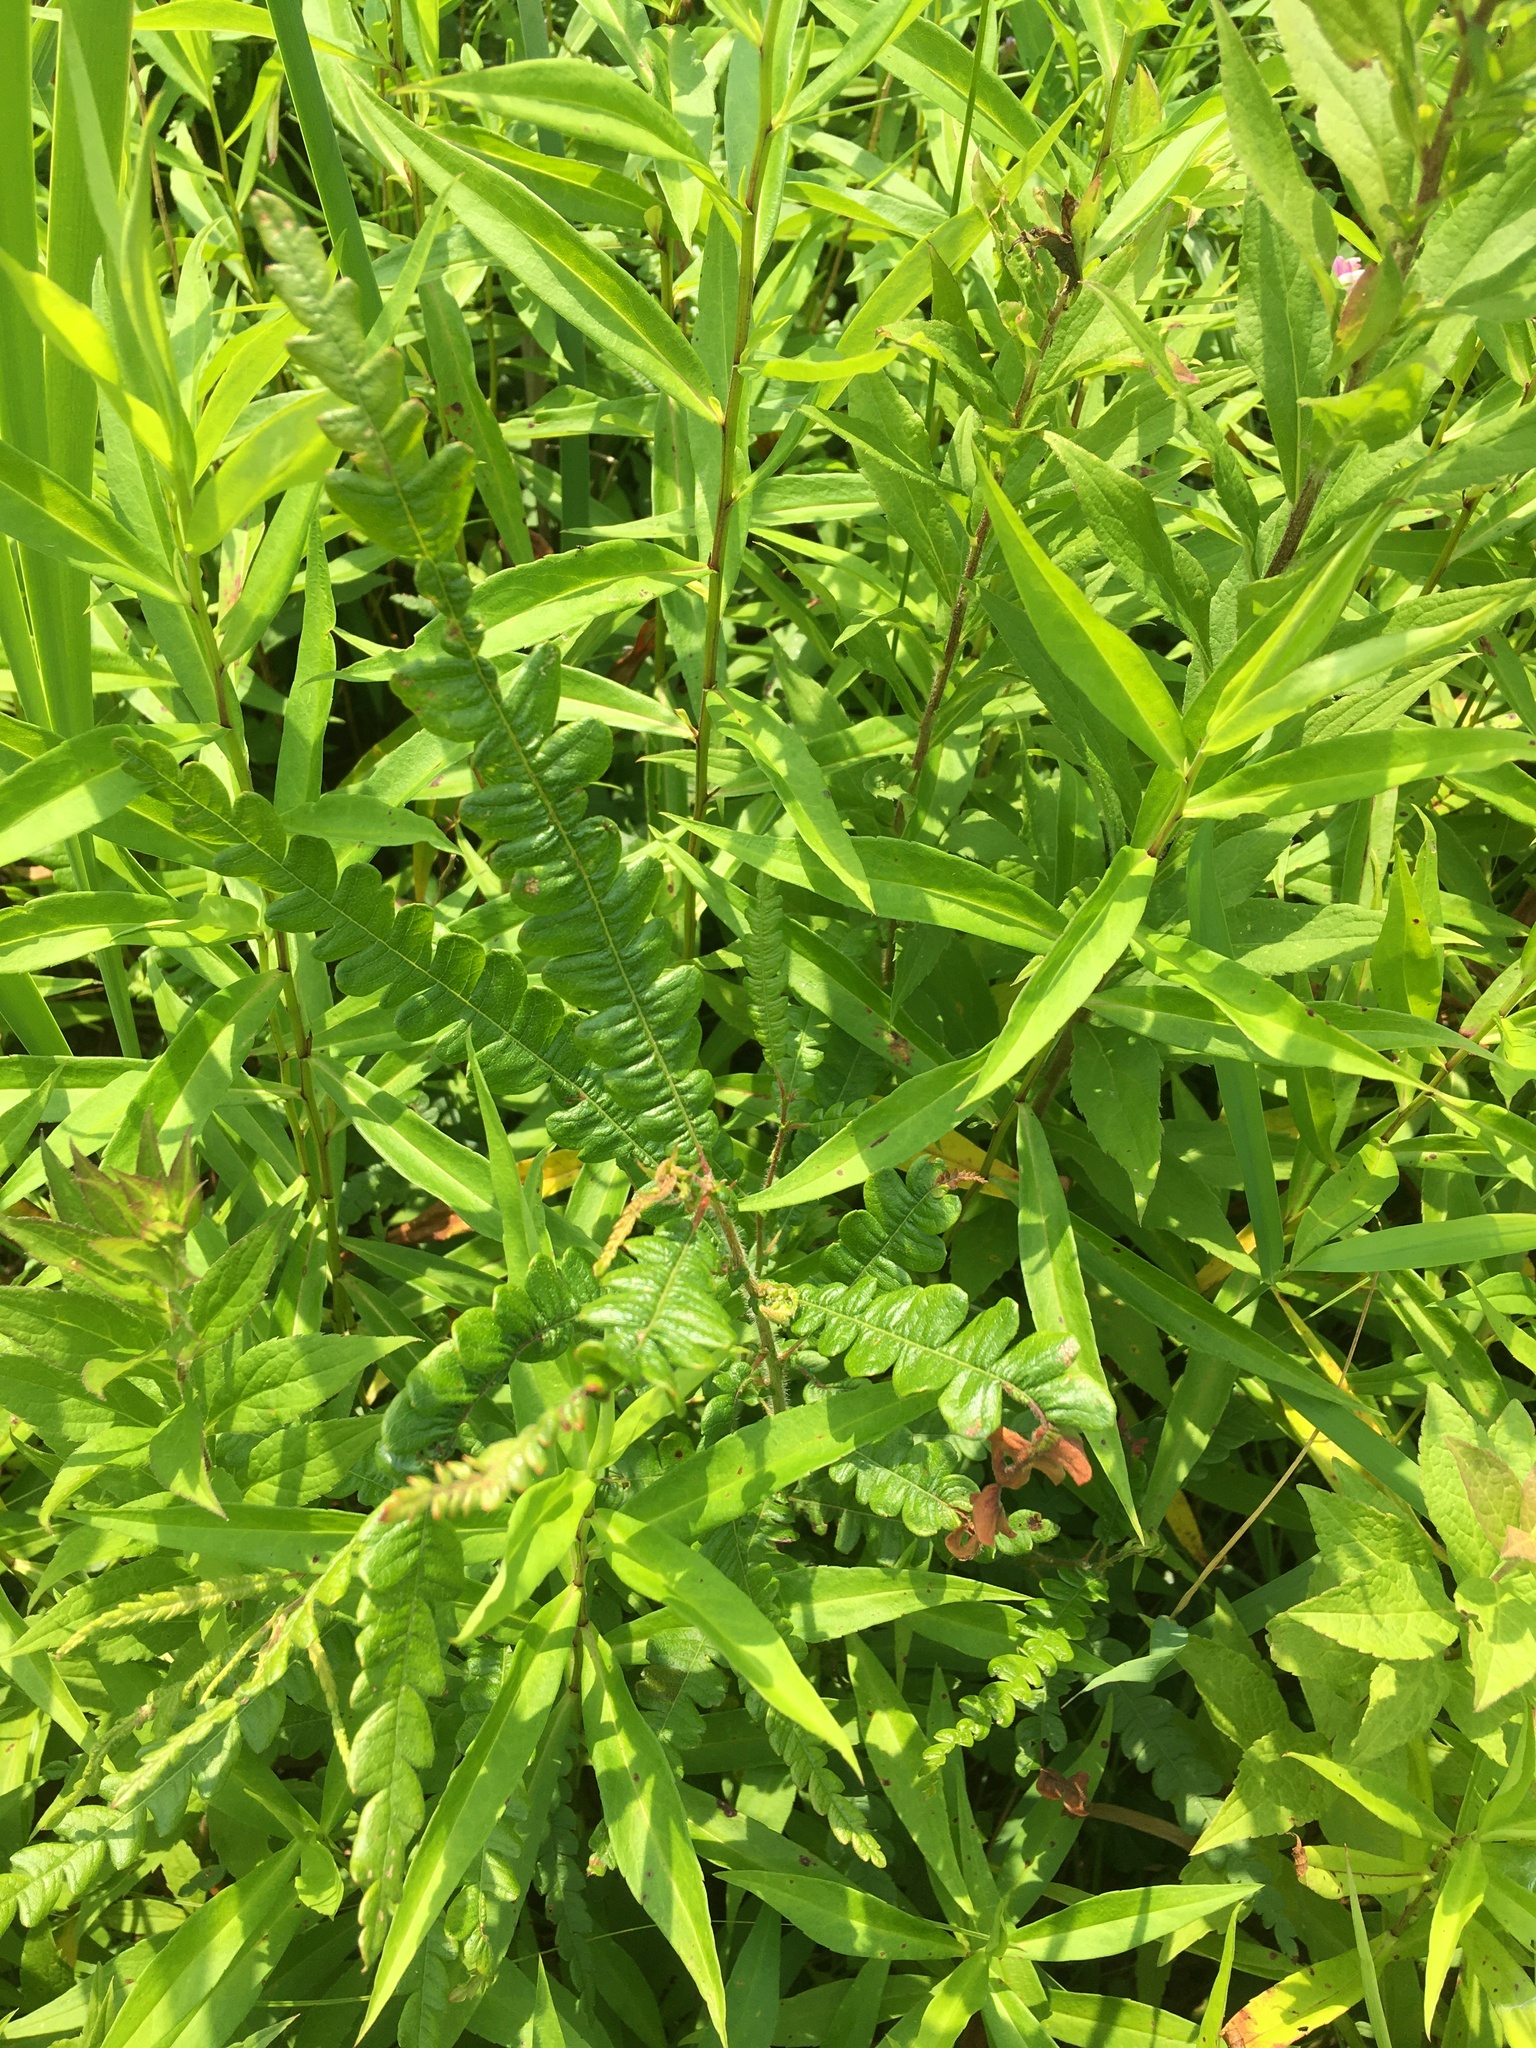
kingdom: Plantae
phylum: Tracheophyta
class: Magnoliopsida
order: Fagales
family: Myricaceae
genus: Comptonia
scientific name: Comptonia peregrina
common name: Sweet-fern
